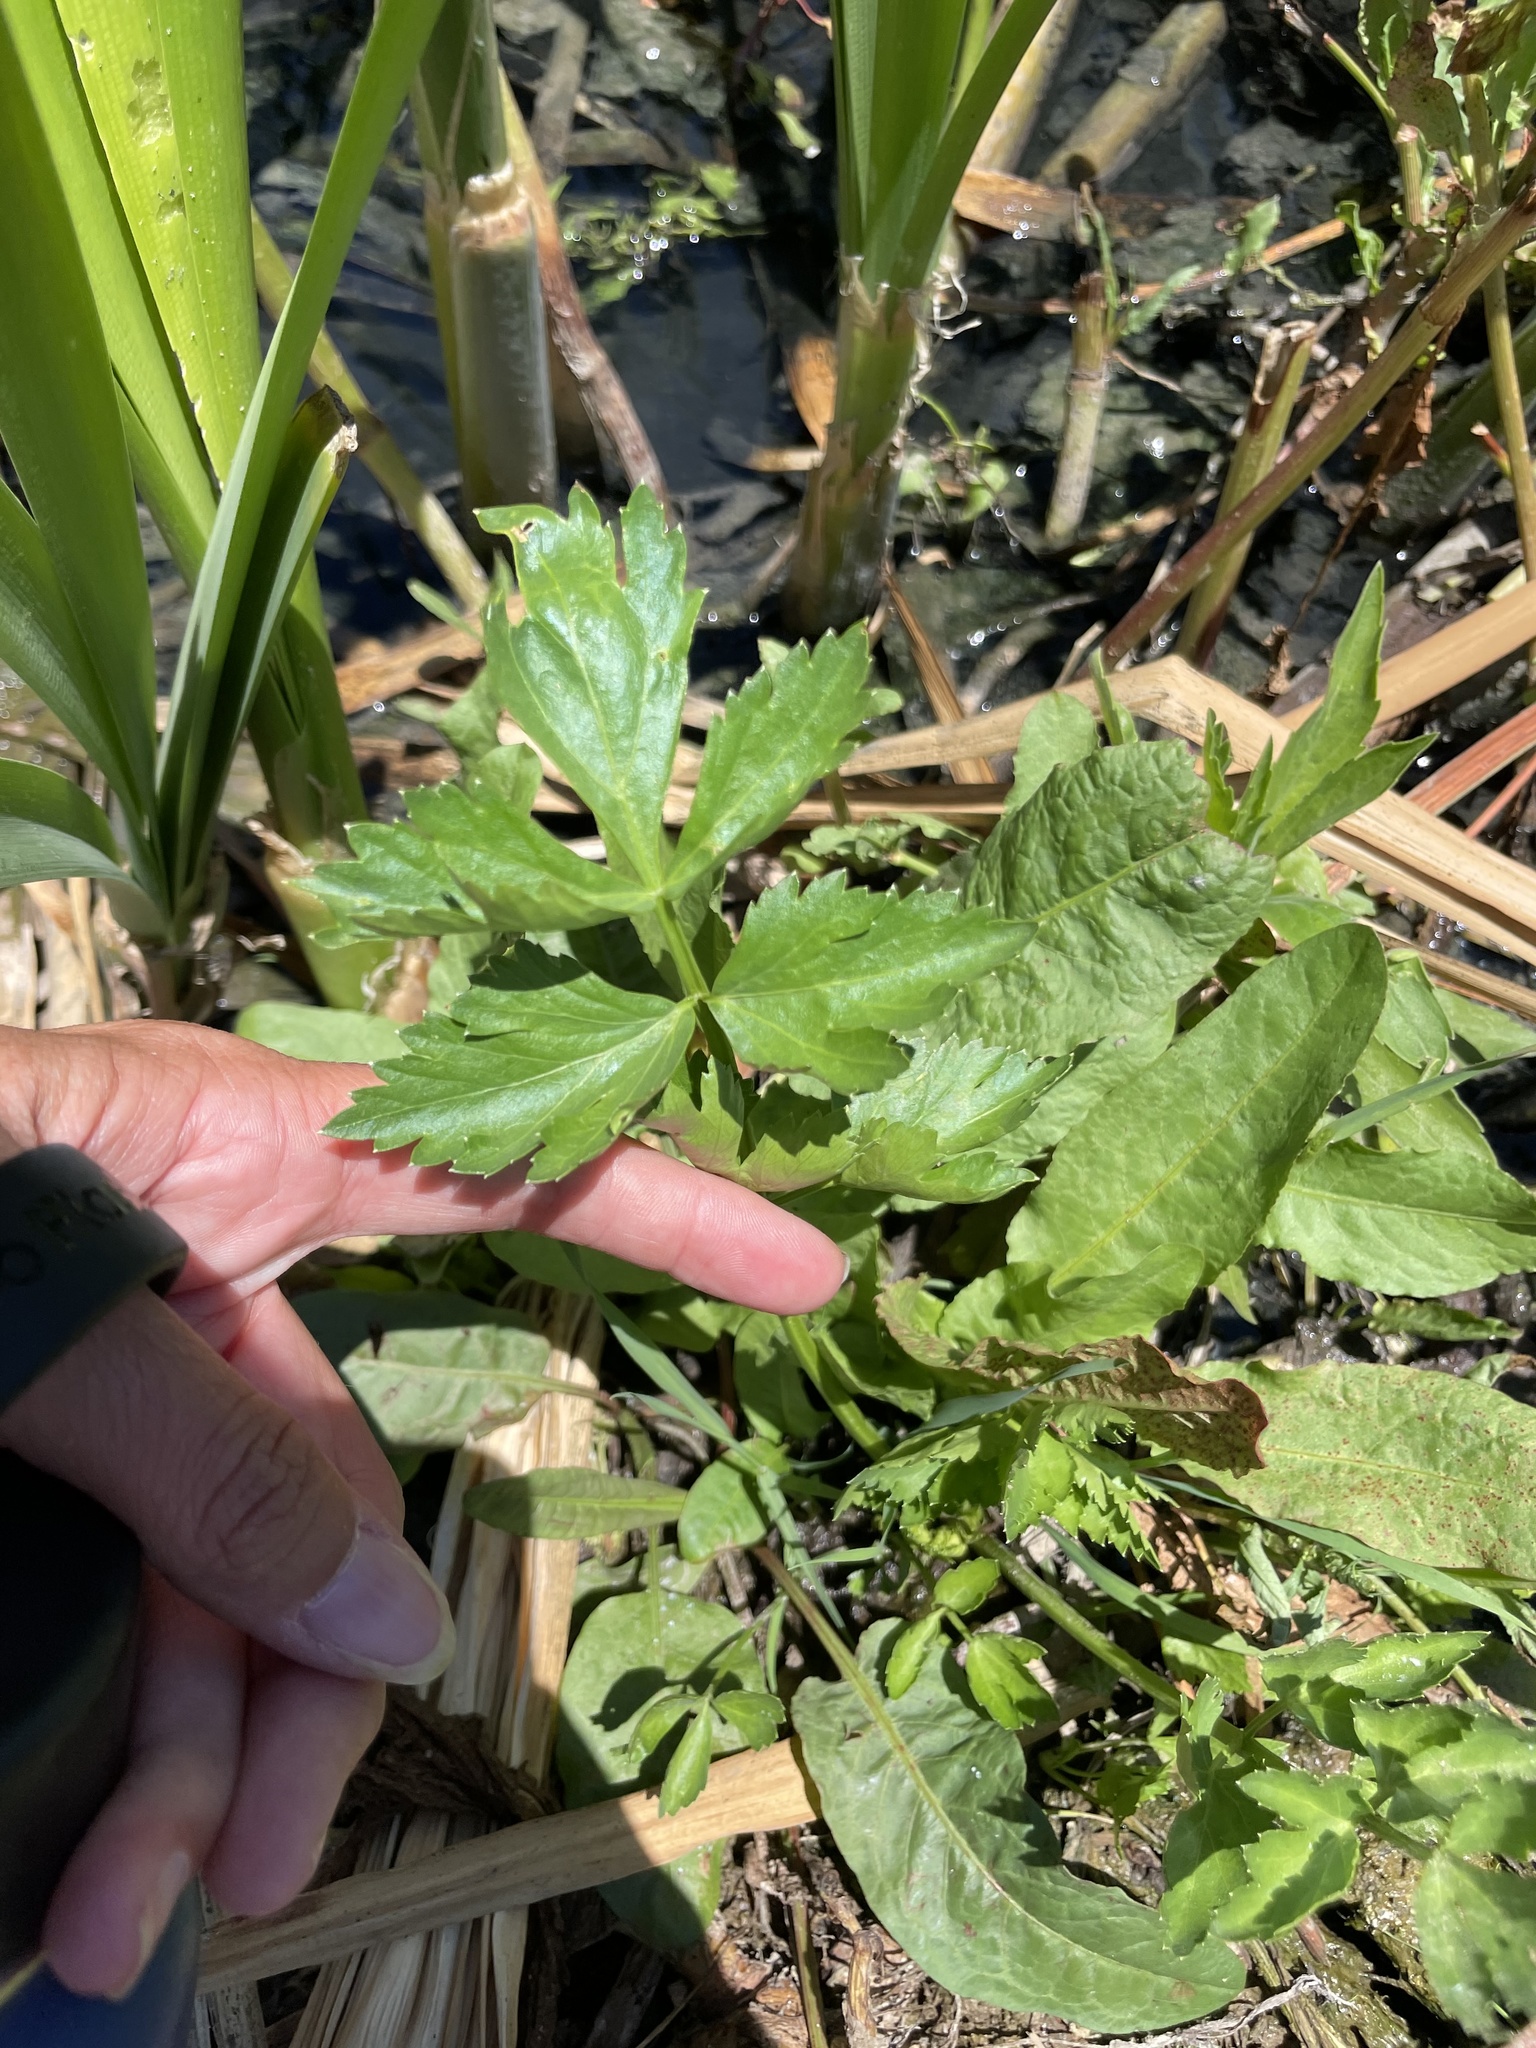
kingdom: Plantae
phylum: Tracheophyta
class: Magnoliopsida
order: Apiales
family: Apiaceae
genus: Apium
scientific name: Apium graveolens
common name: Wild celery
